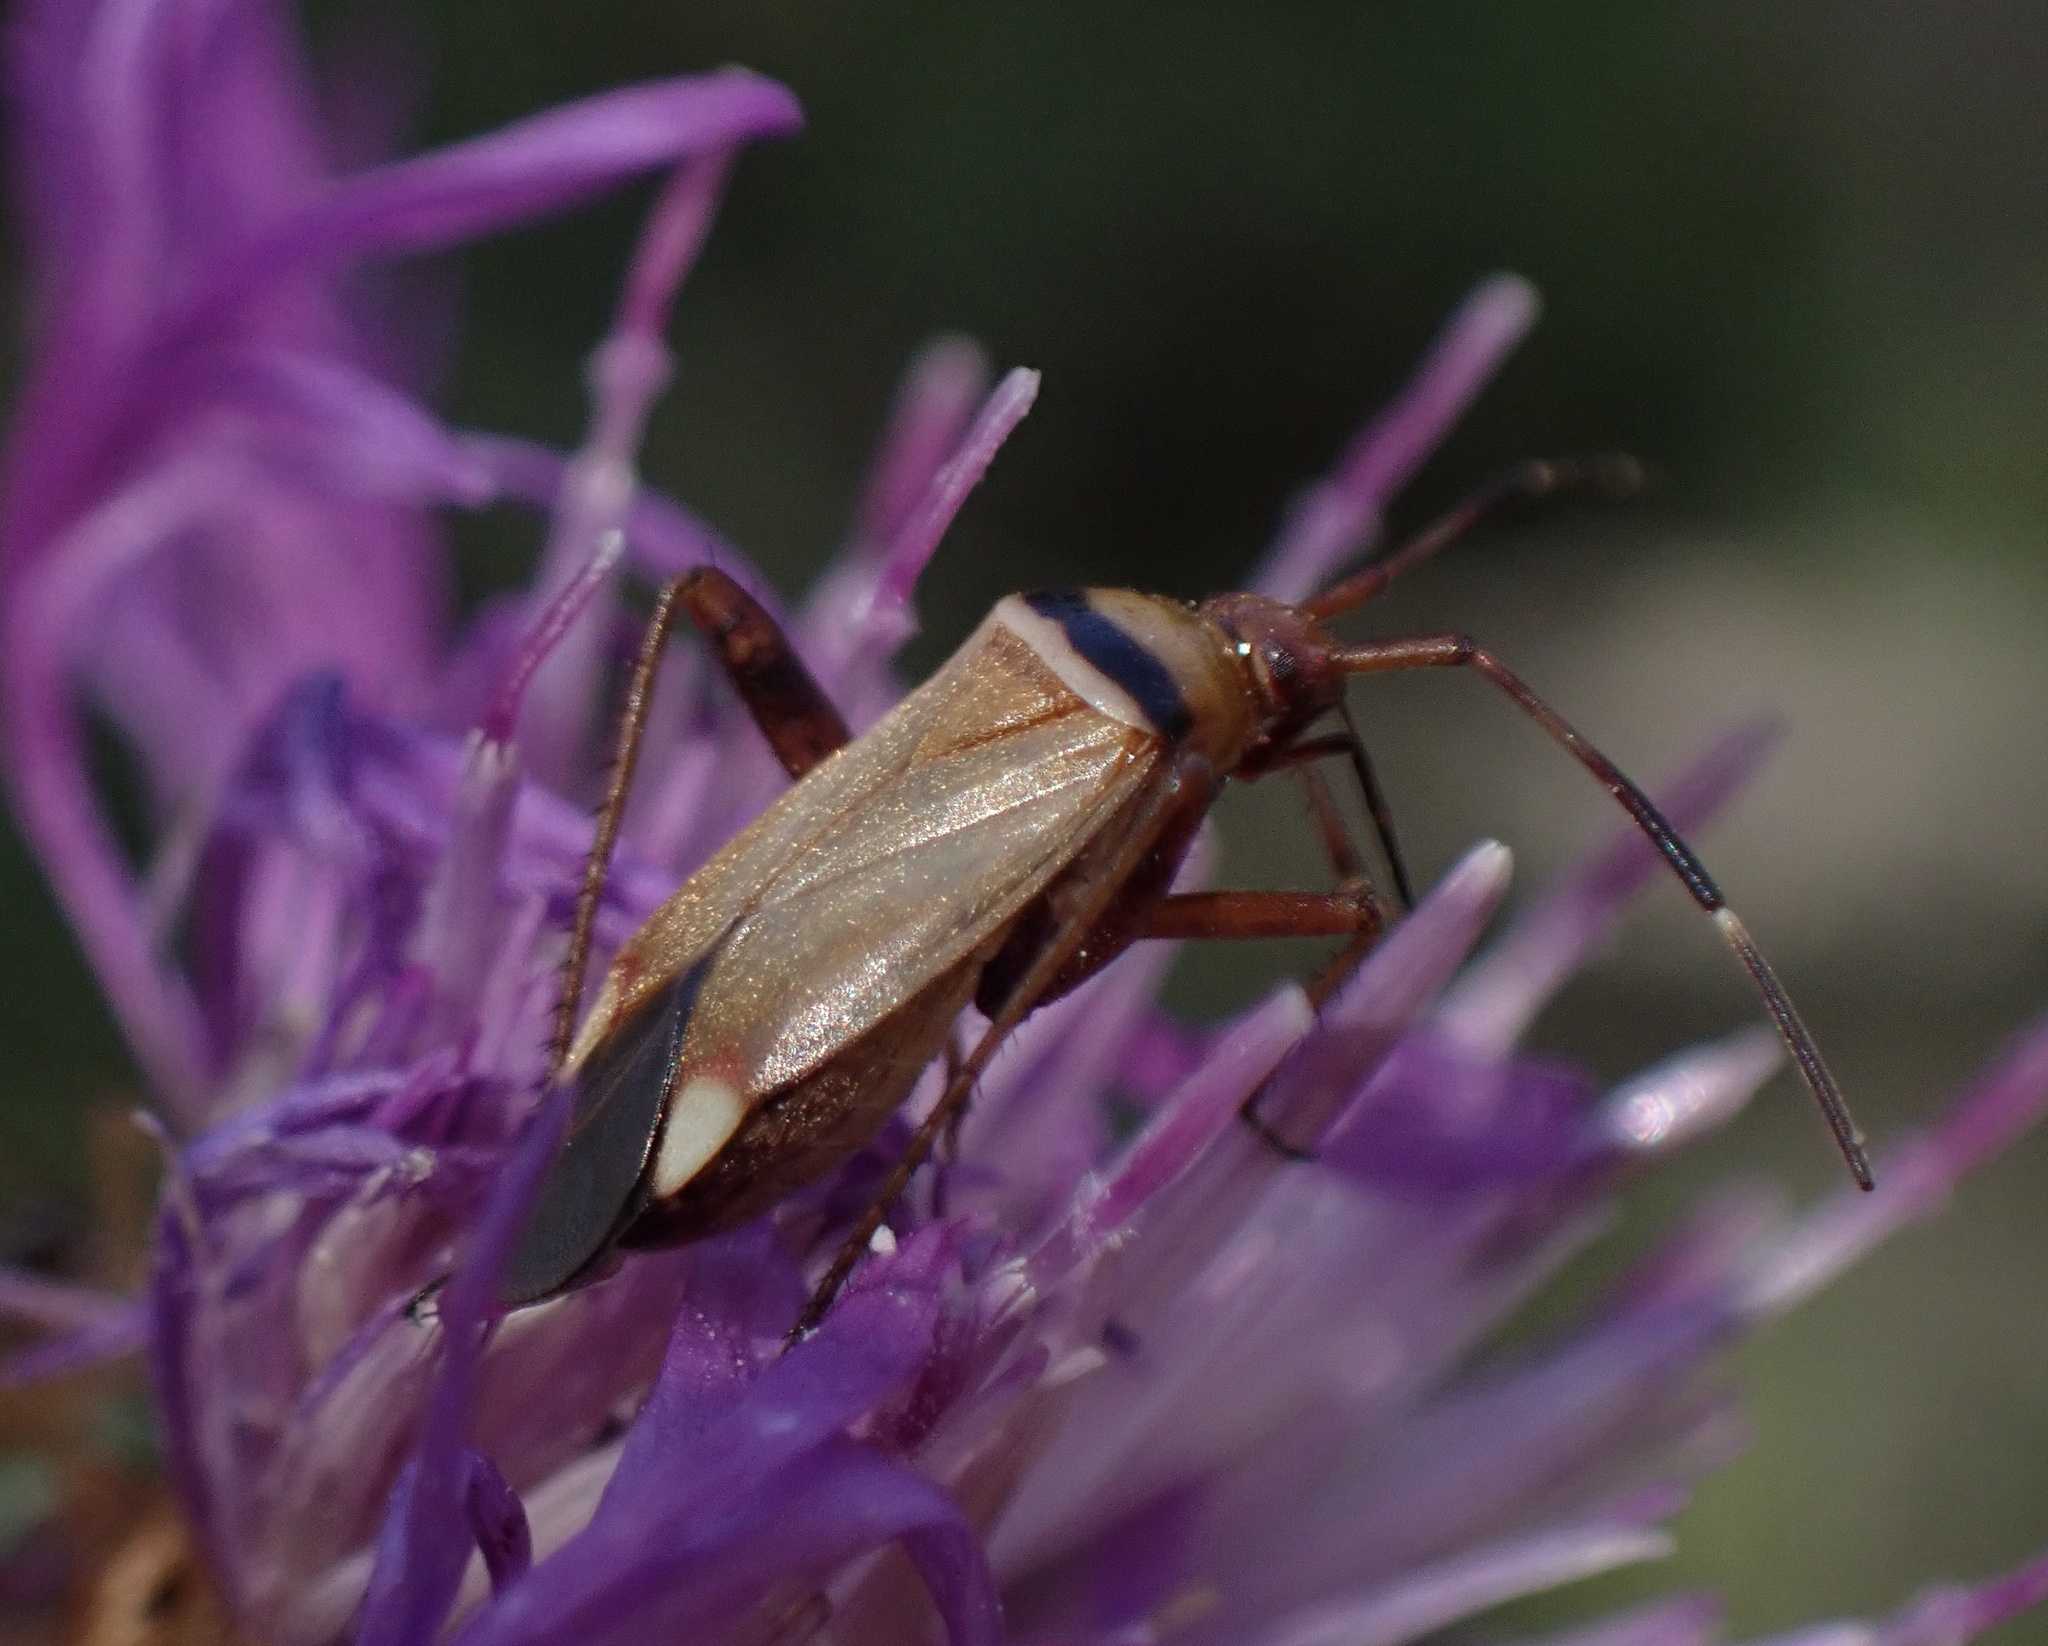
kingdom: Animalia
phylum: Arthropoda
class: Insecta
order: Hemiptera
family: Miridae
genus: Adelphocoris
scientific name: Adelphocoris vandalicus
